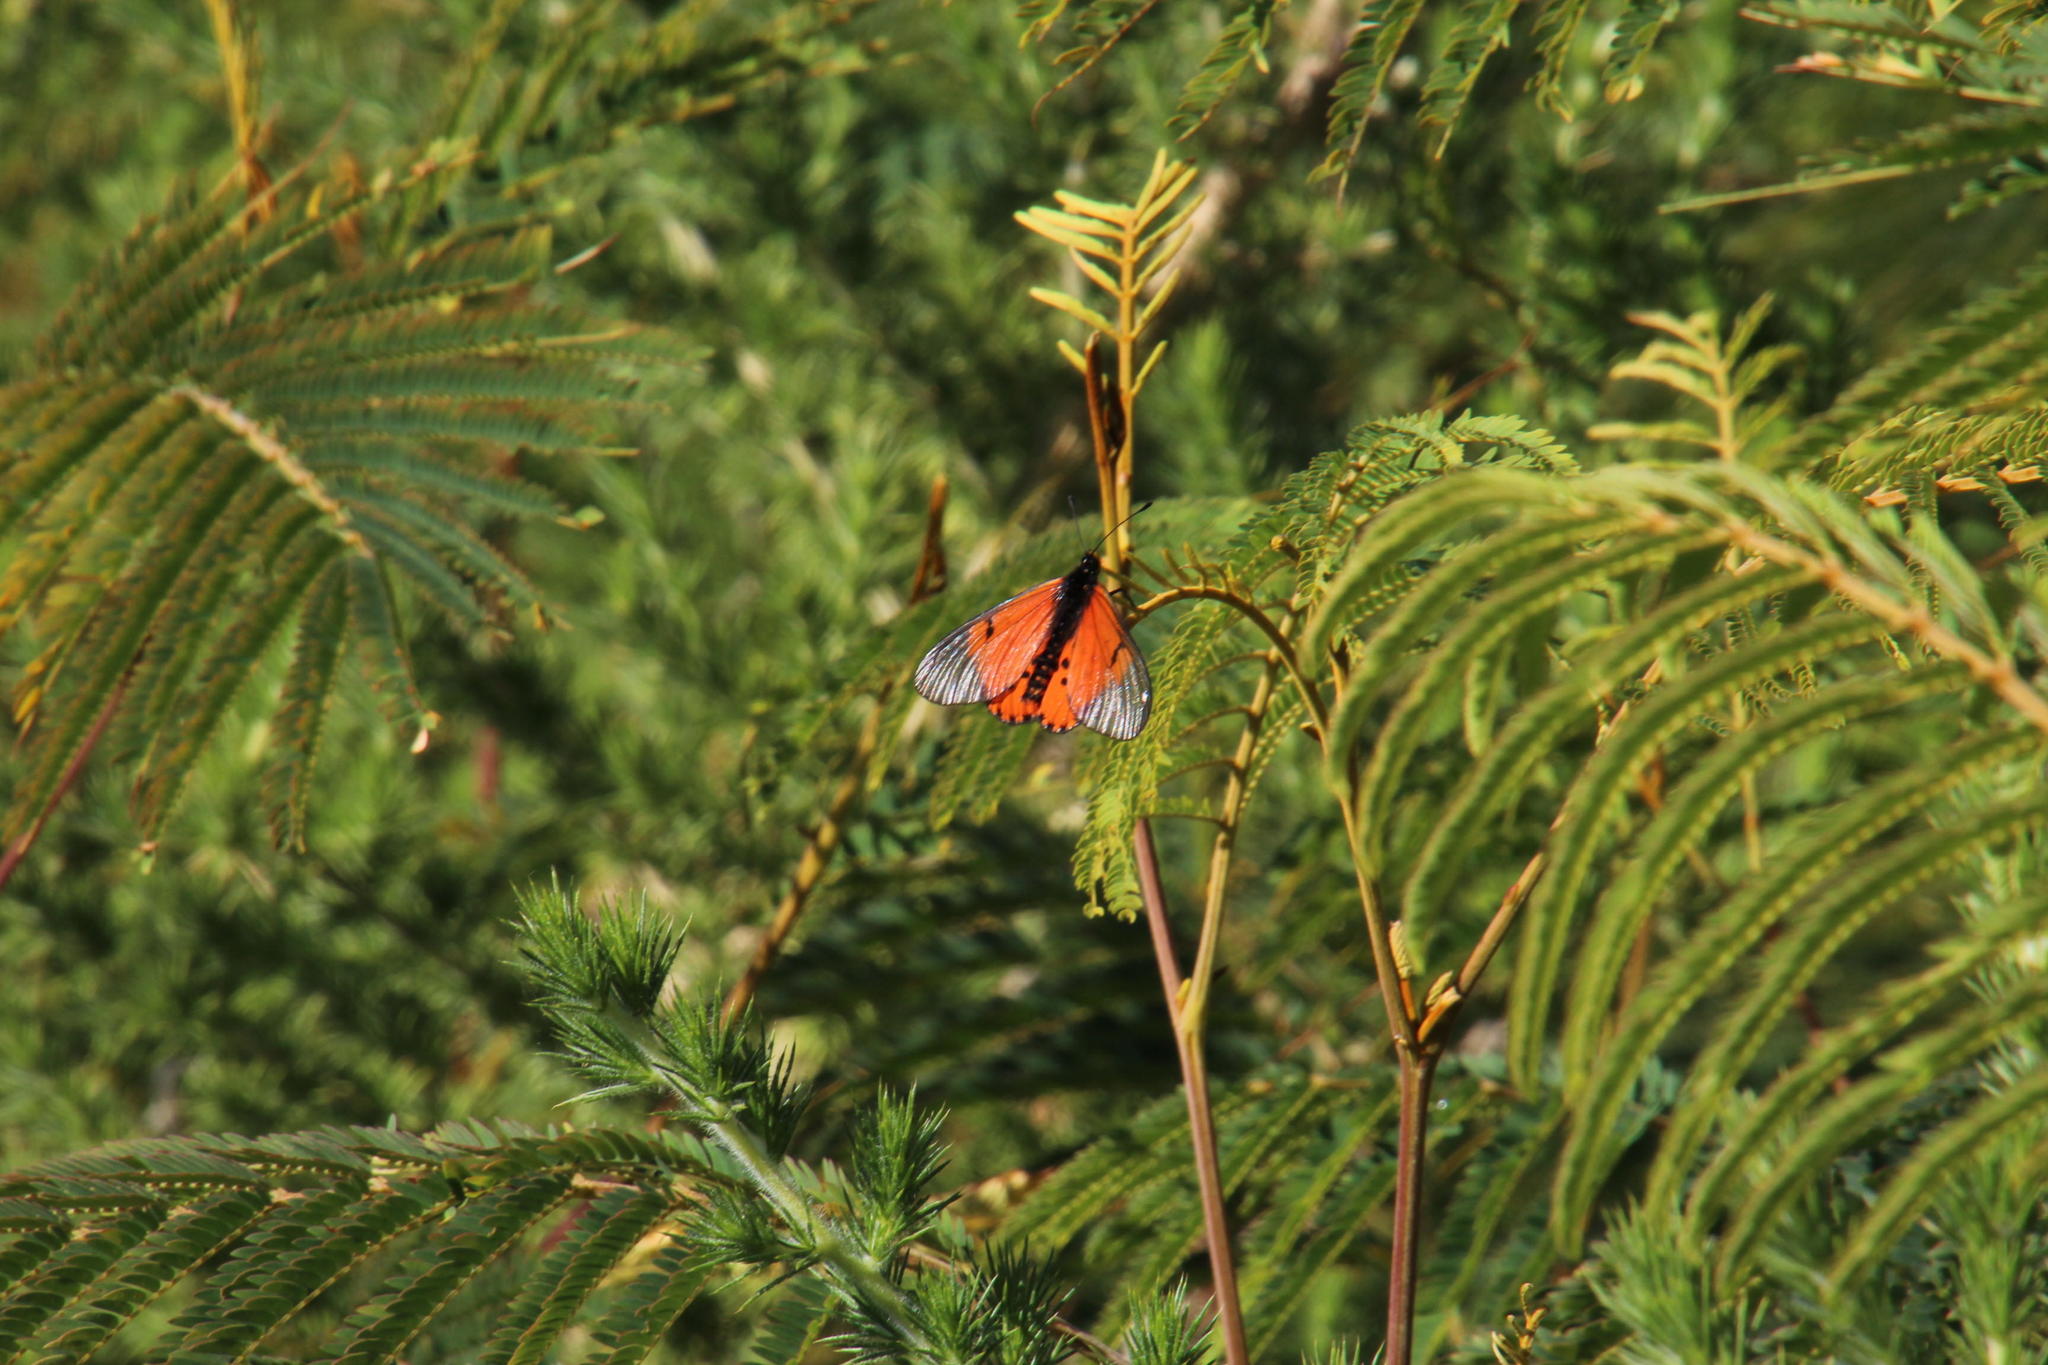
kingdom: Animalia
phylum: Arthropoda
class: Insecta
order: Lepidoptera
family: Nymphalidae
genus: Acraea
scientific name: Acraea horta
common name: Garden acraea
